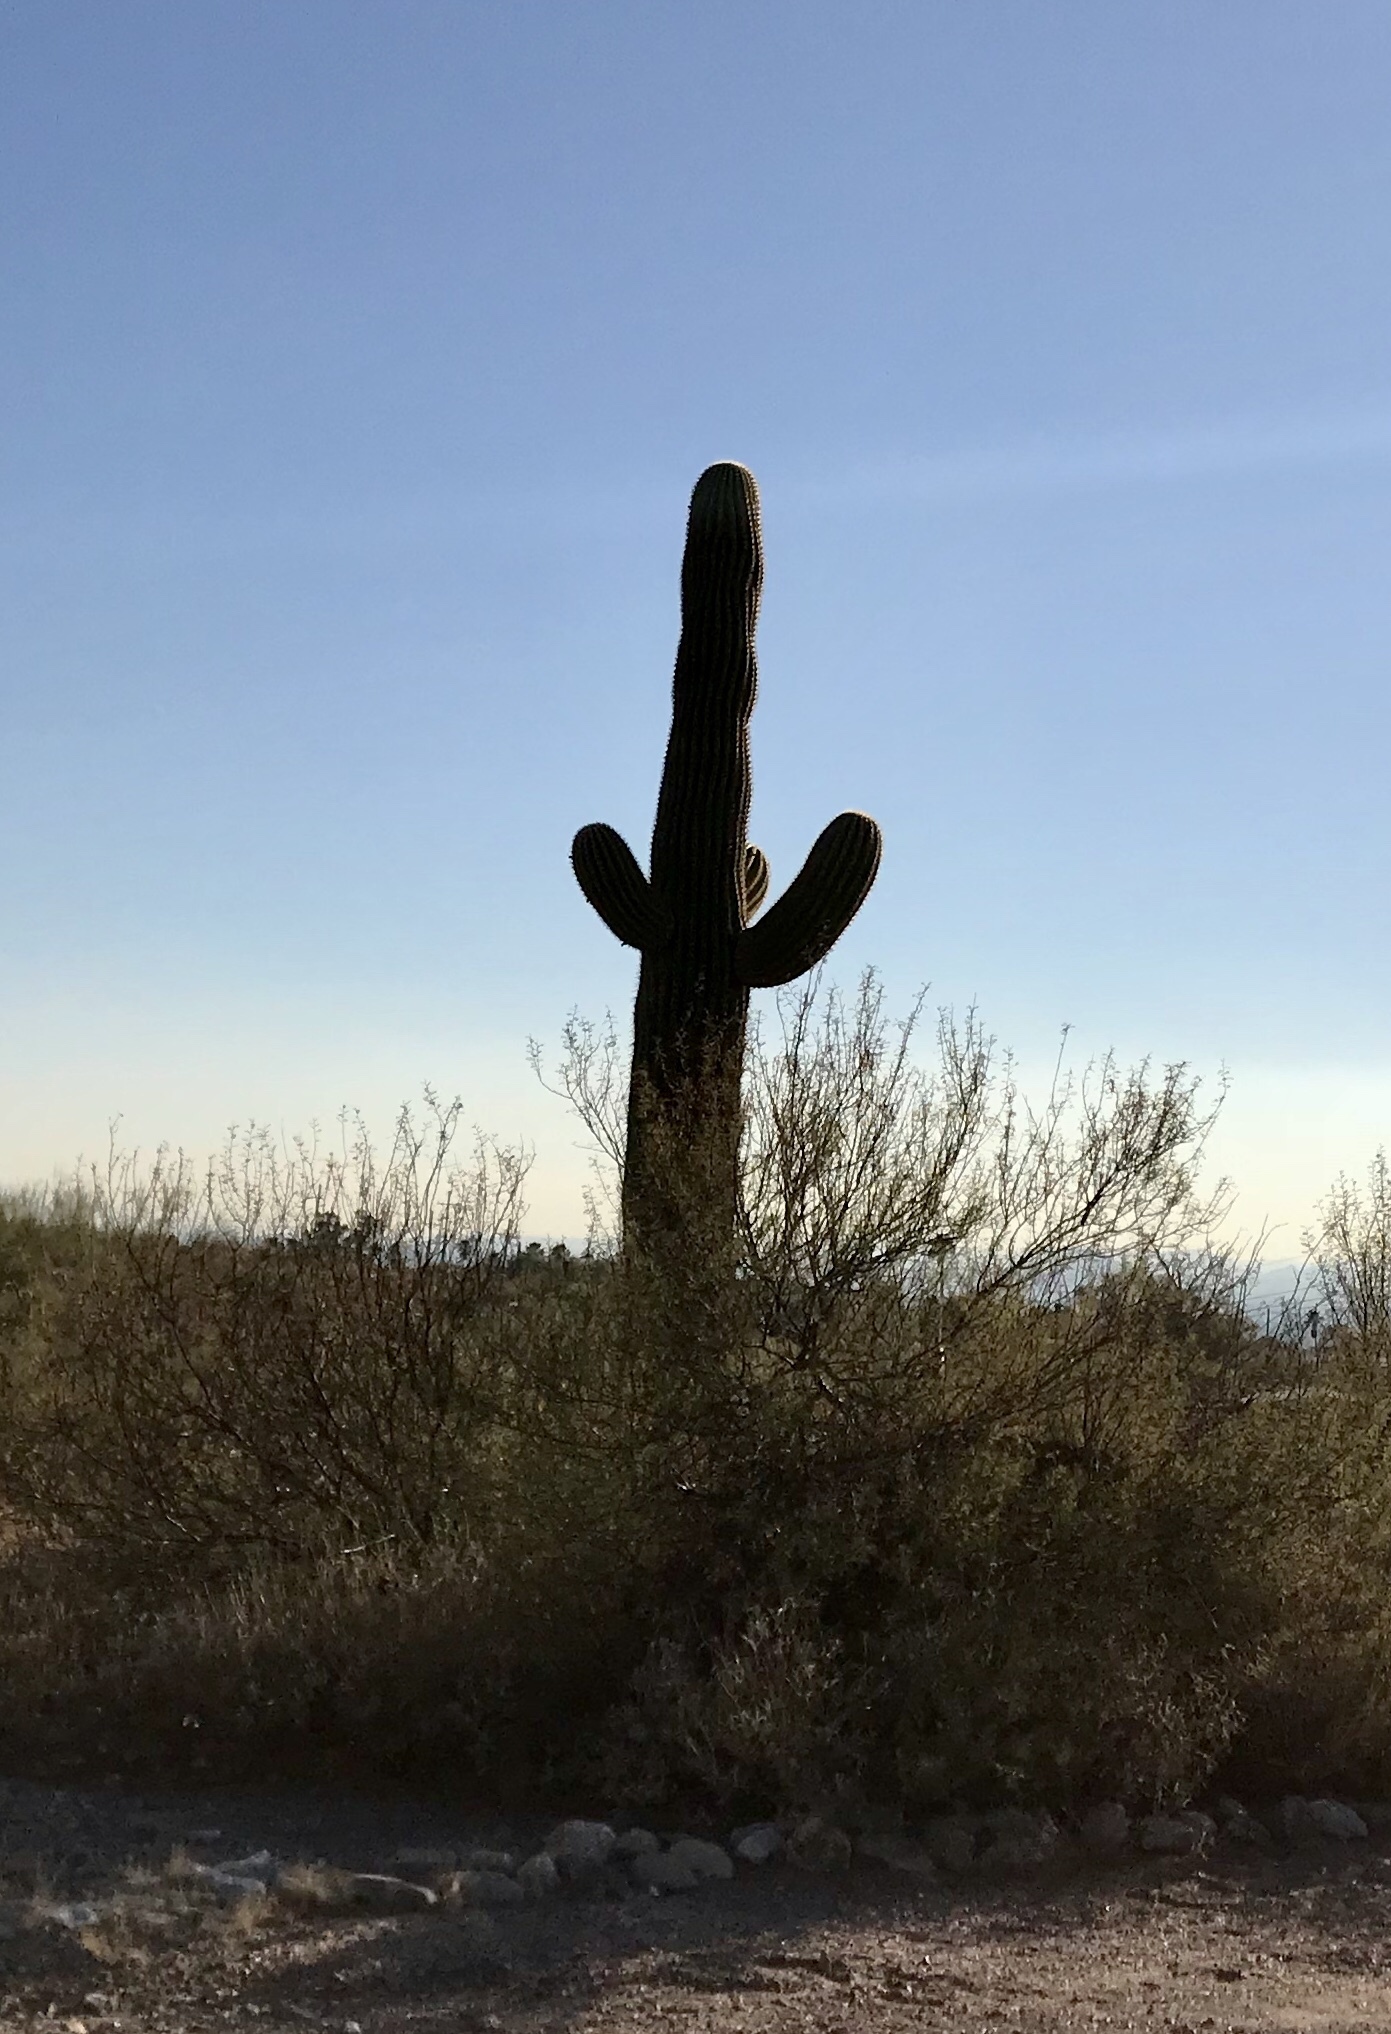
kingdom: Plantae
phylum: Tracheophyta
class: Magnoliopsida
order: Caryophyllales
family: Cactaceae
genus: Carnegiea
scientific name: Carnegiea gigantea
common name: Saguaro
